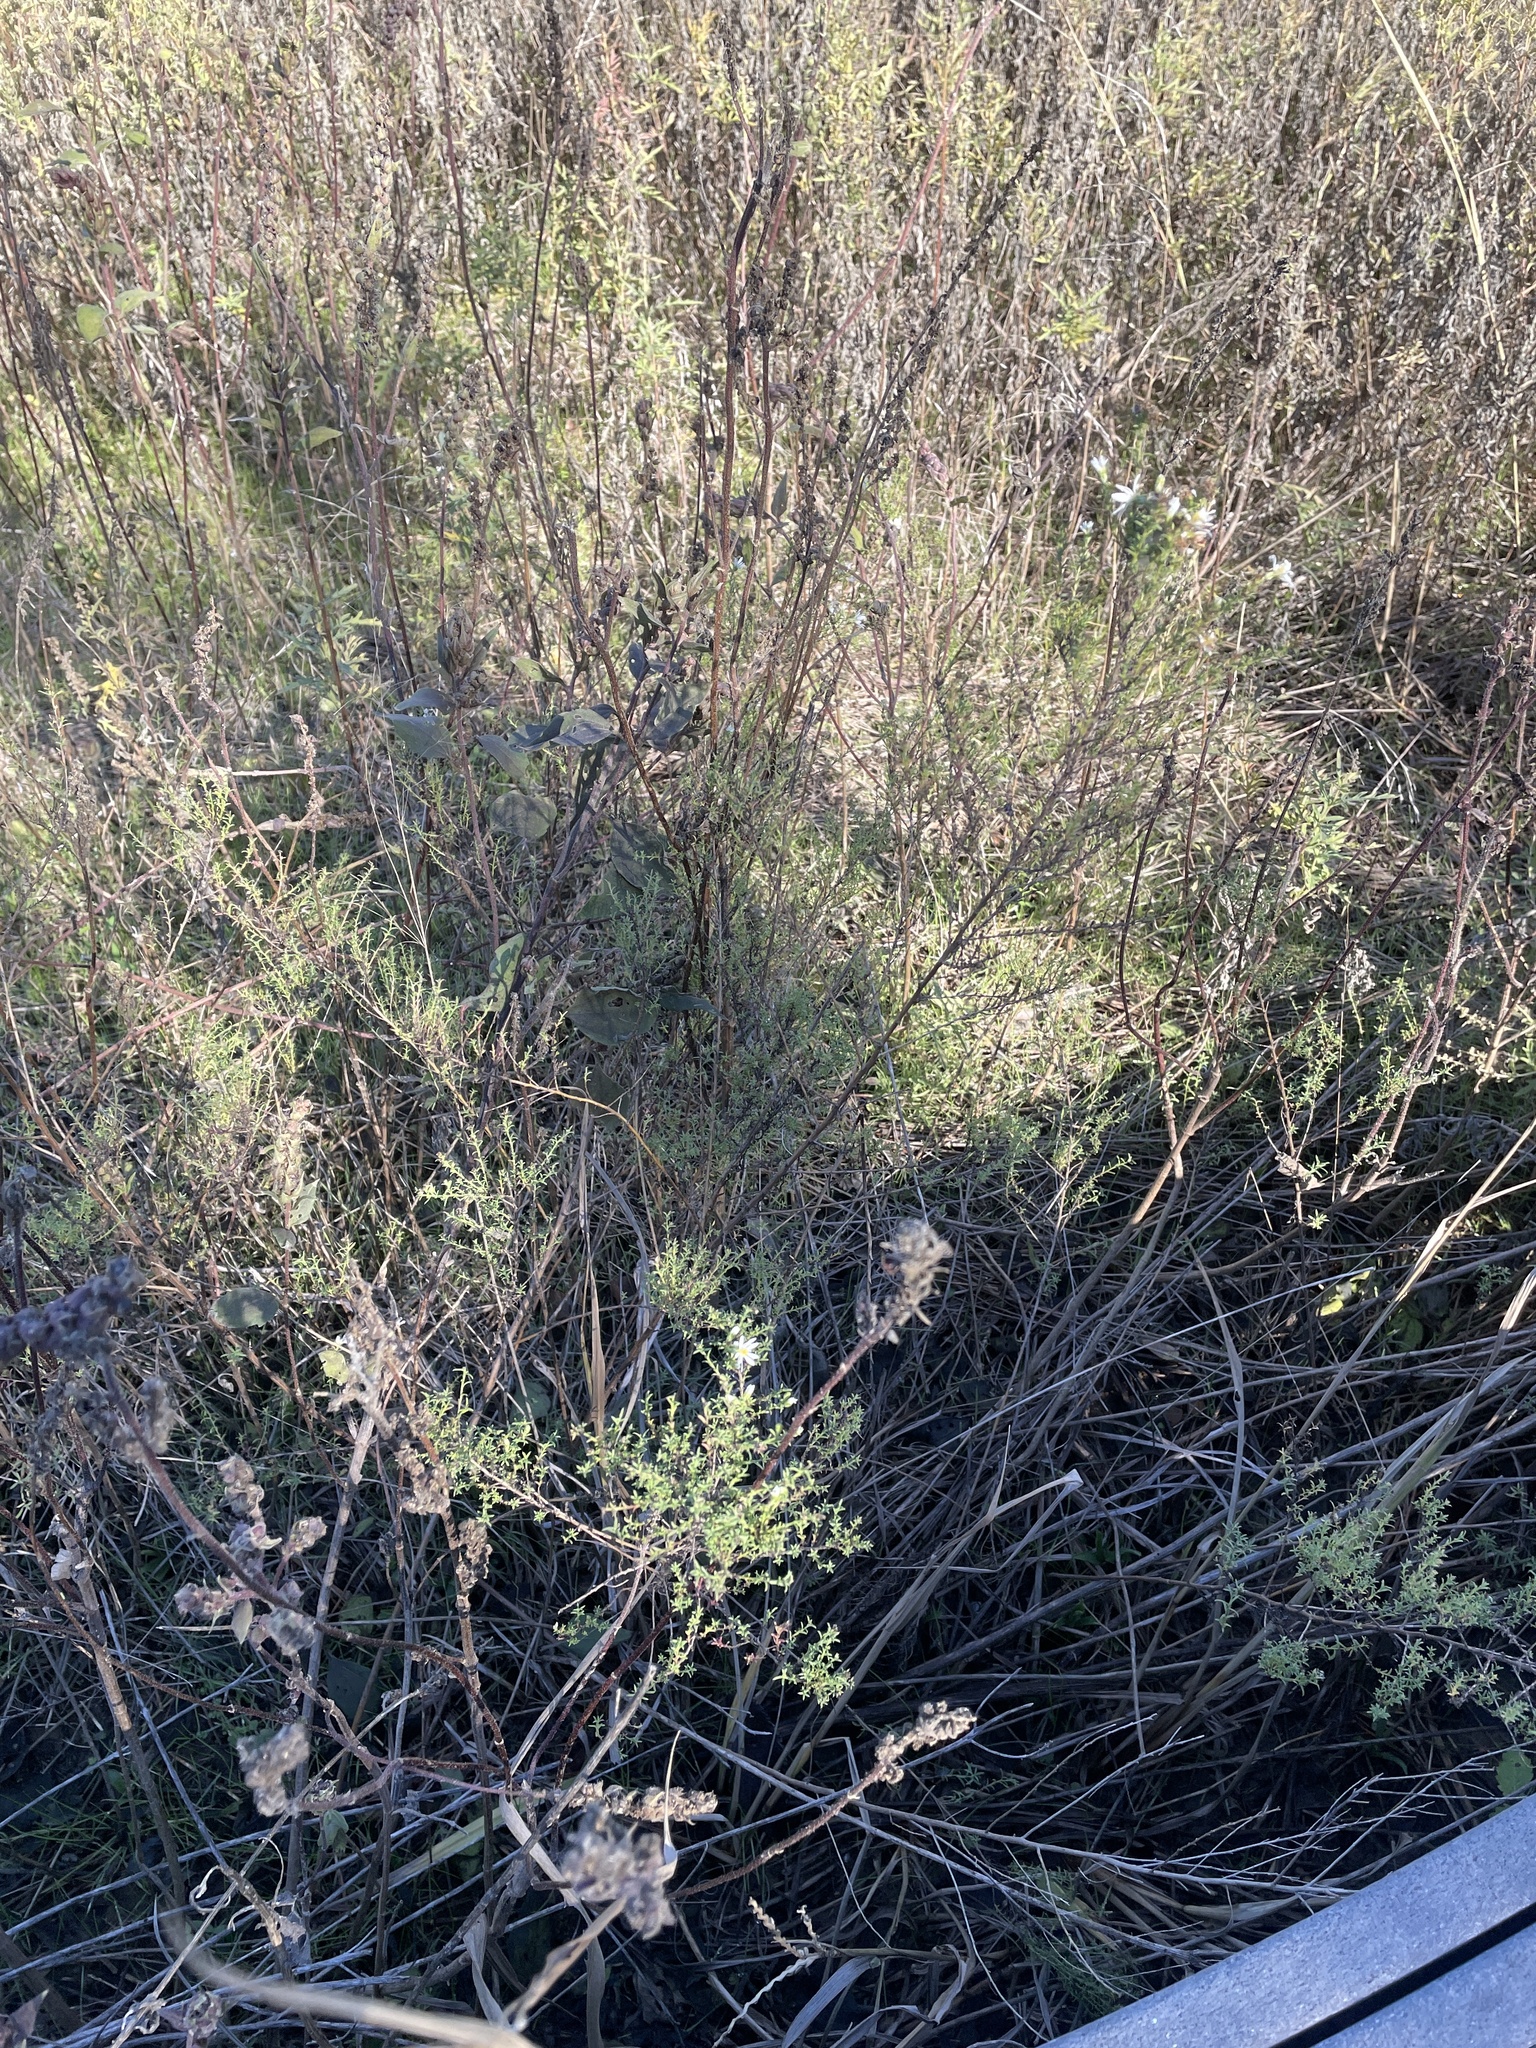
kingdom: Plantae
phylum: Tracheophyta
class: Magnoliopsida
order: Asterales
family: Asteraceae
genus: Symphyotrichum
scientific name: Symphyotrichum ericoides
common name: Heath aster
